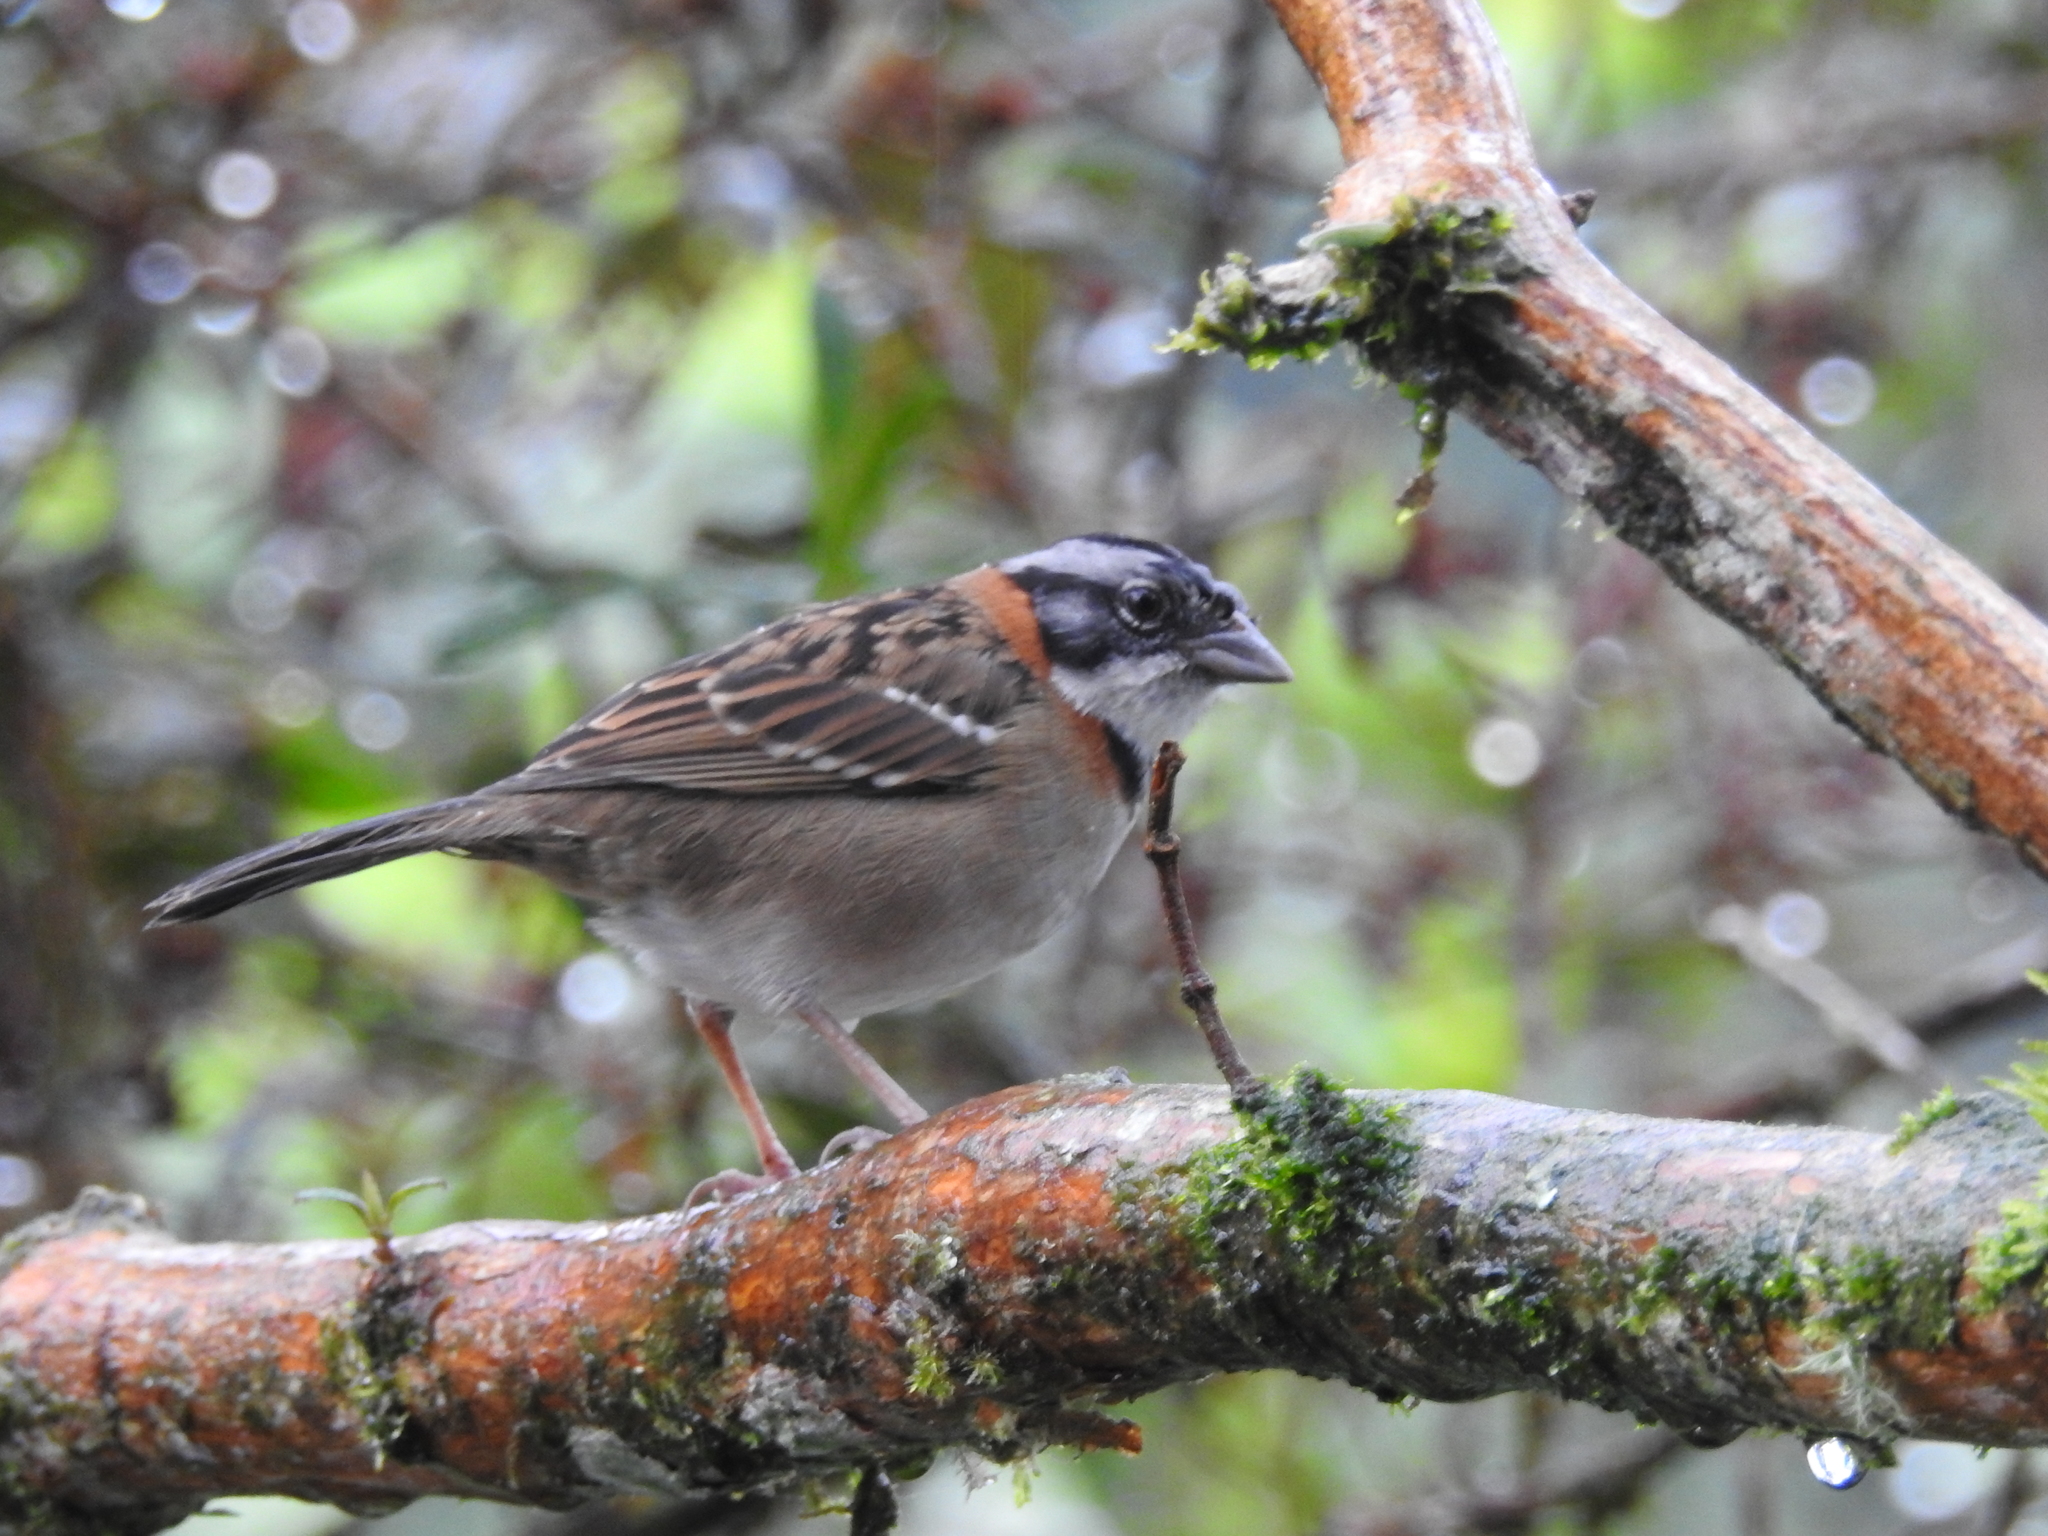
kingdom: Animalia
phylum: Chordata
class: Aves
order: Passeriformes
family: Passerellidae
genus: Zonotrichia
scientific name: Zonotrichia capensis
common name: Rufous-collared sparrow
